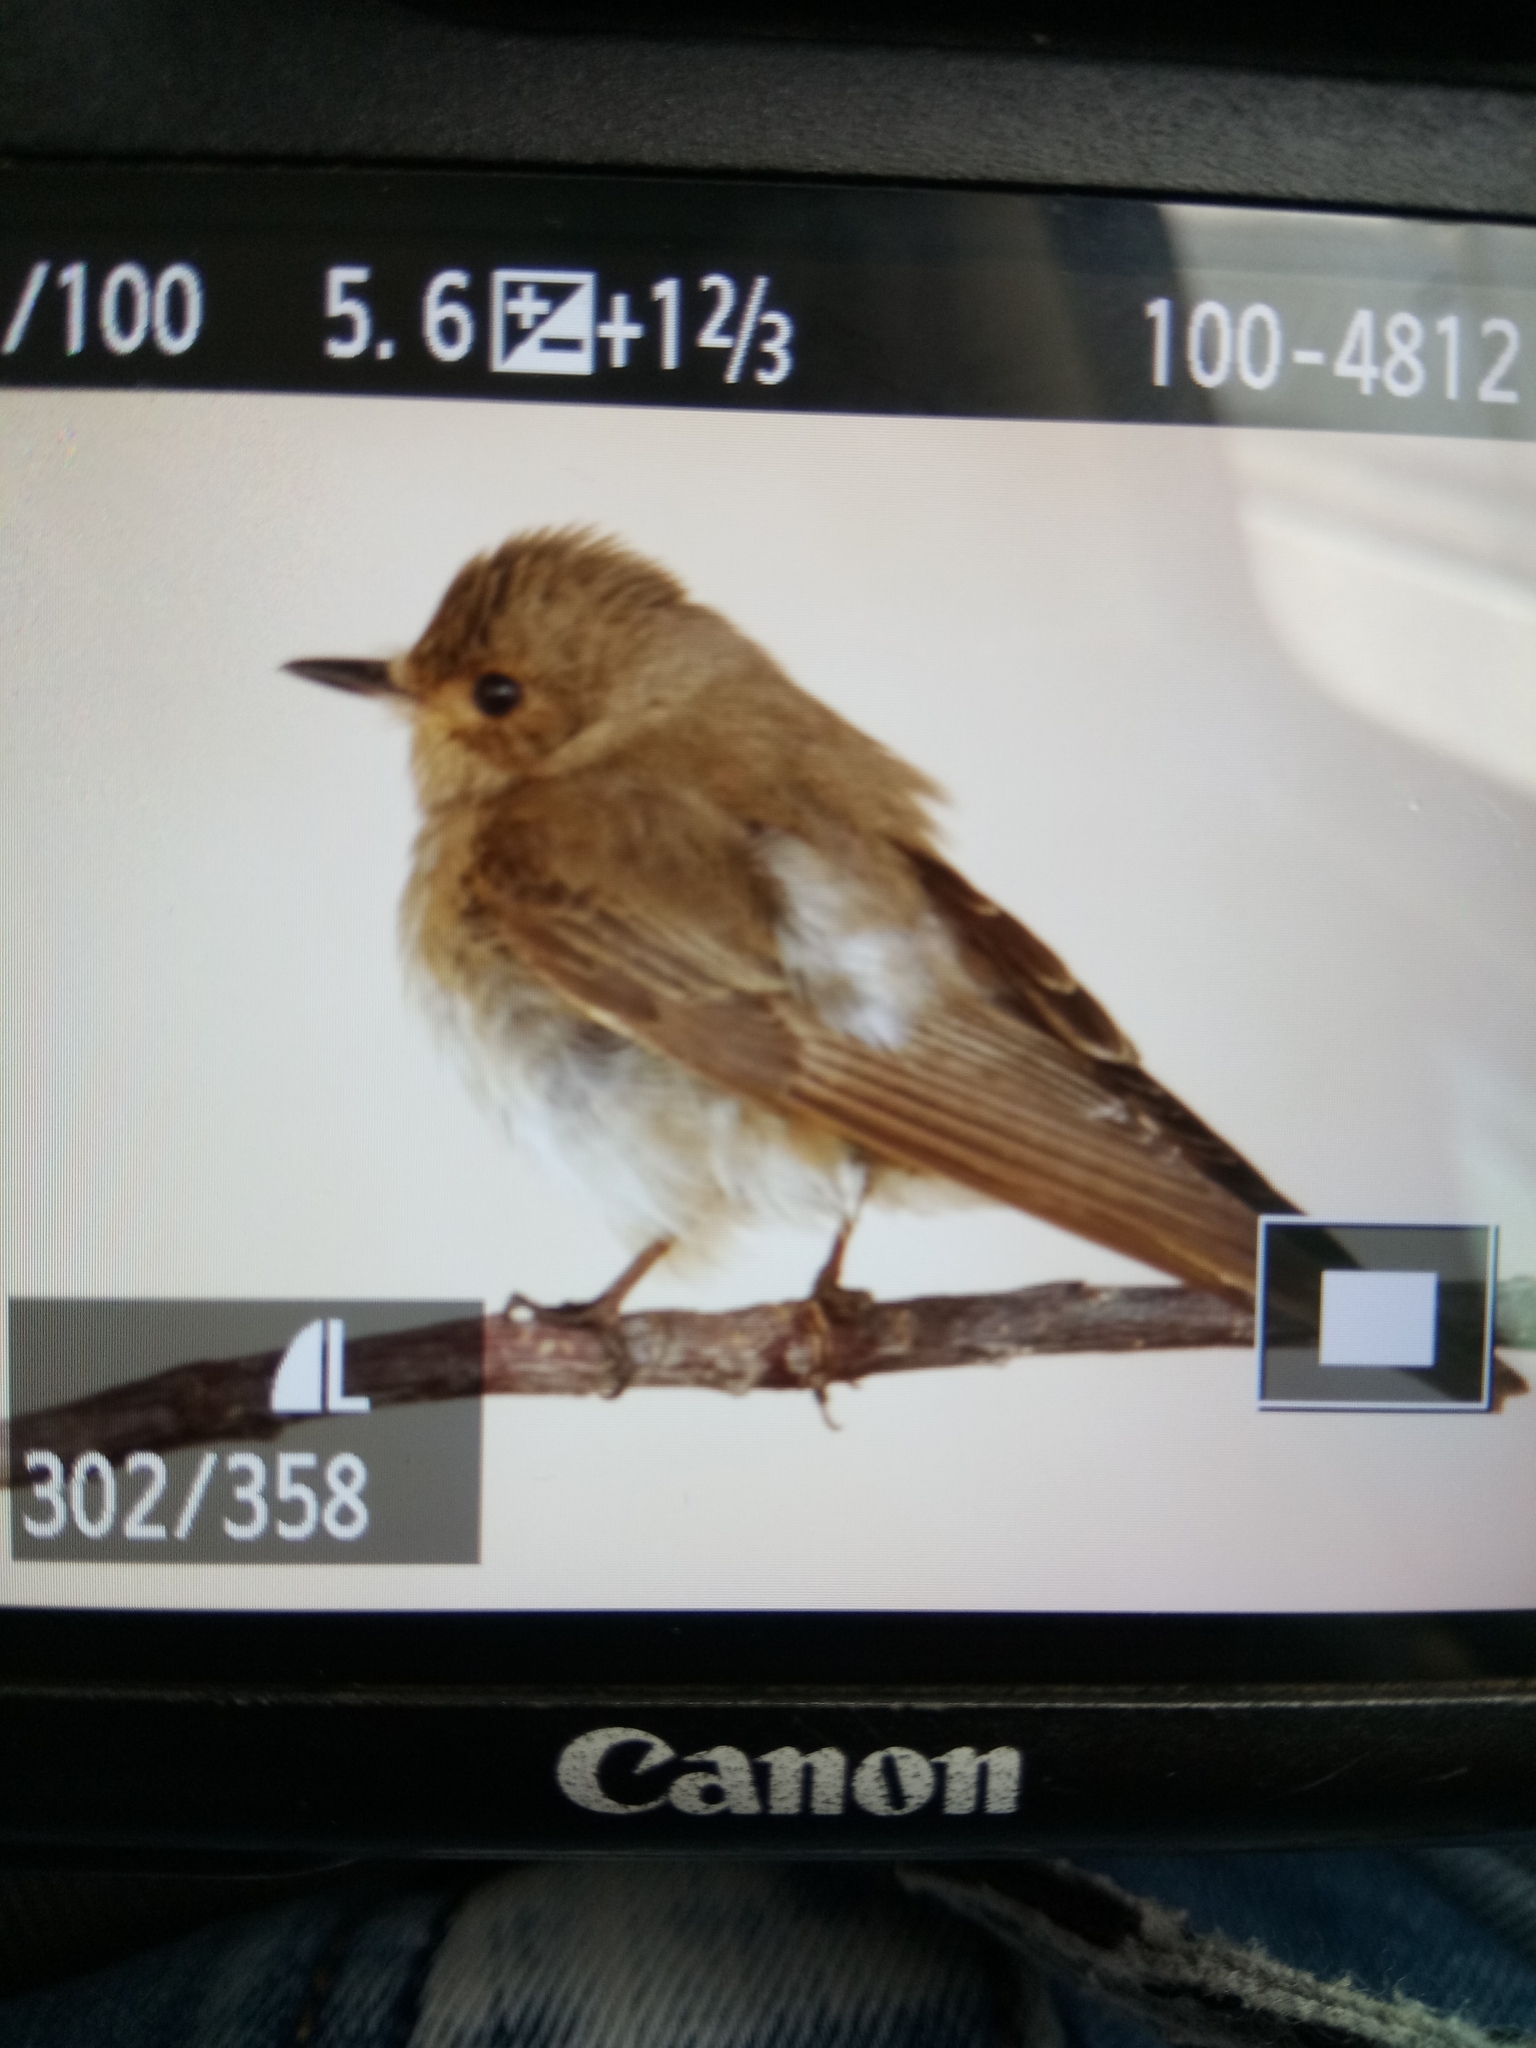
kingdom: Animalia
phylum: Chordata
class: Aves
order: Passeriformes
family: Muscicapidae
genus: Muscicapa
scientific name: Muscicapa striata
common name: Spotted flycatcher
